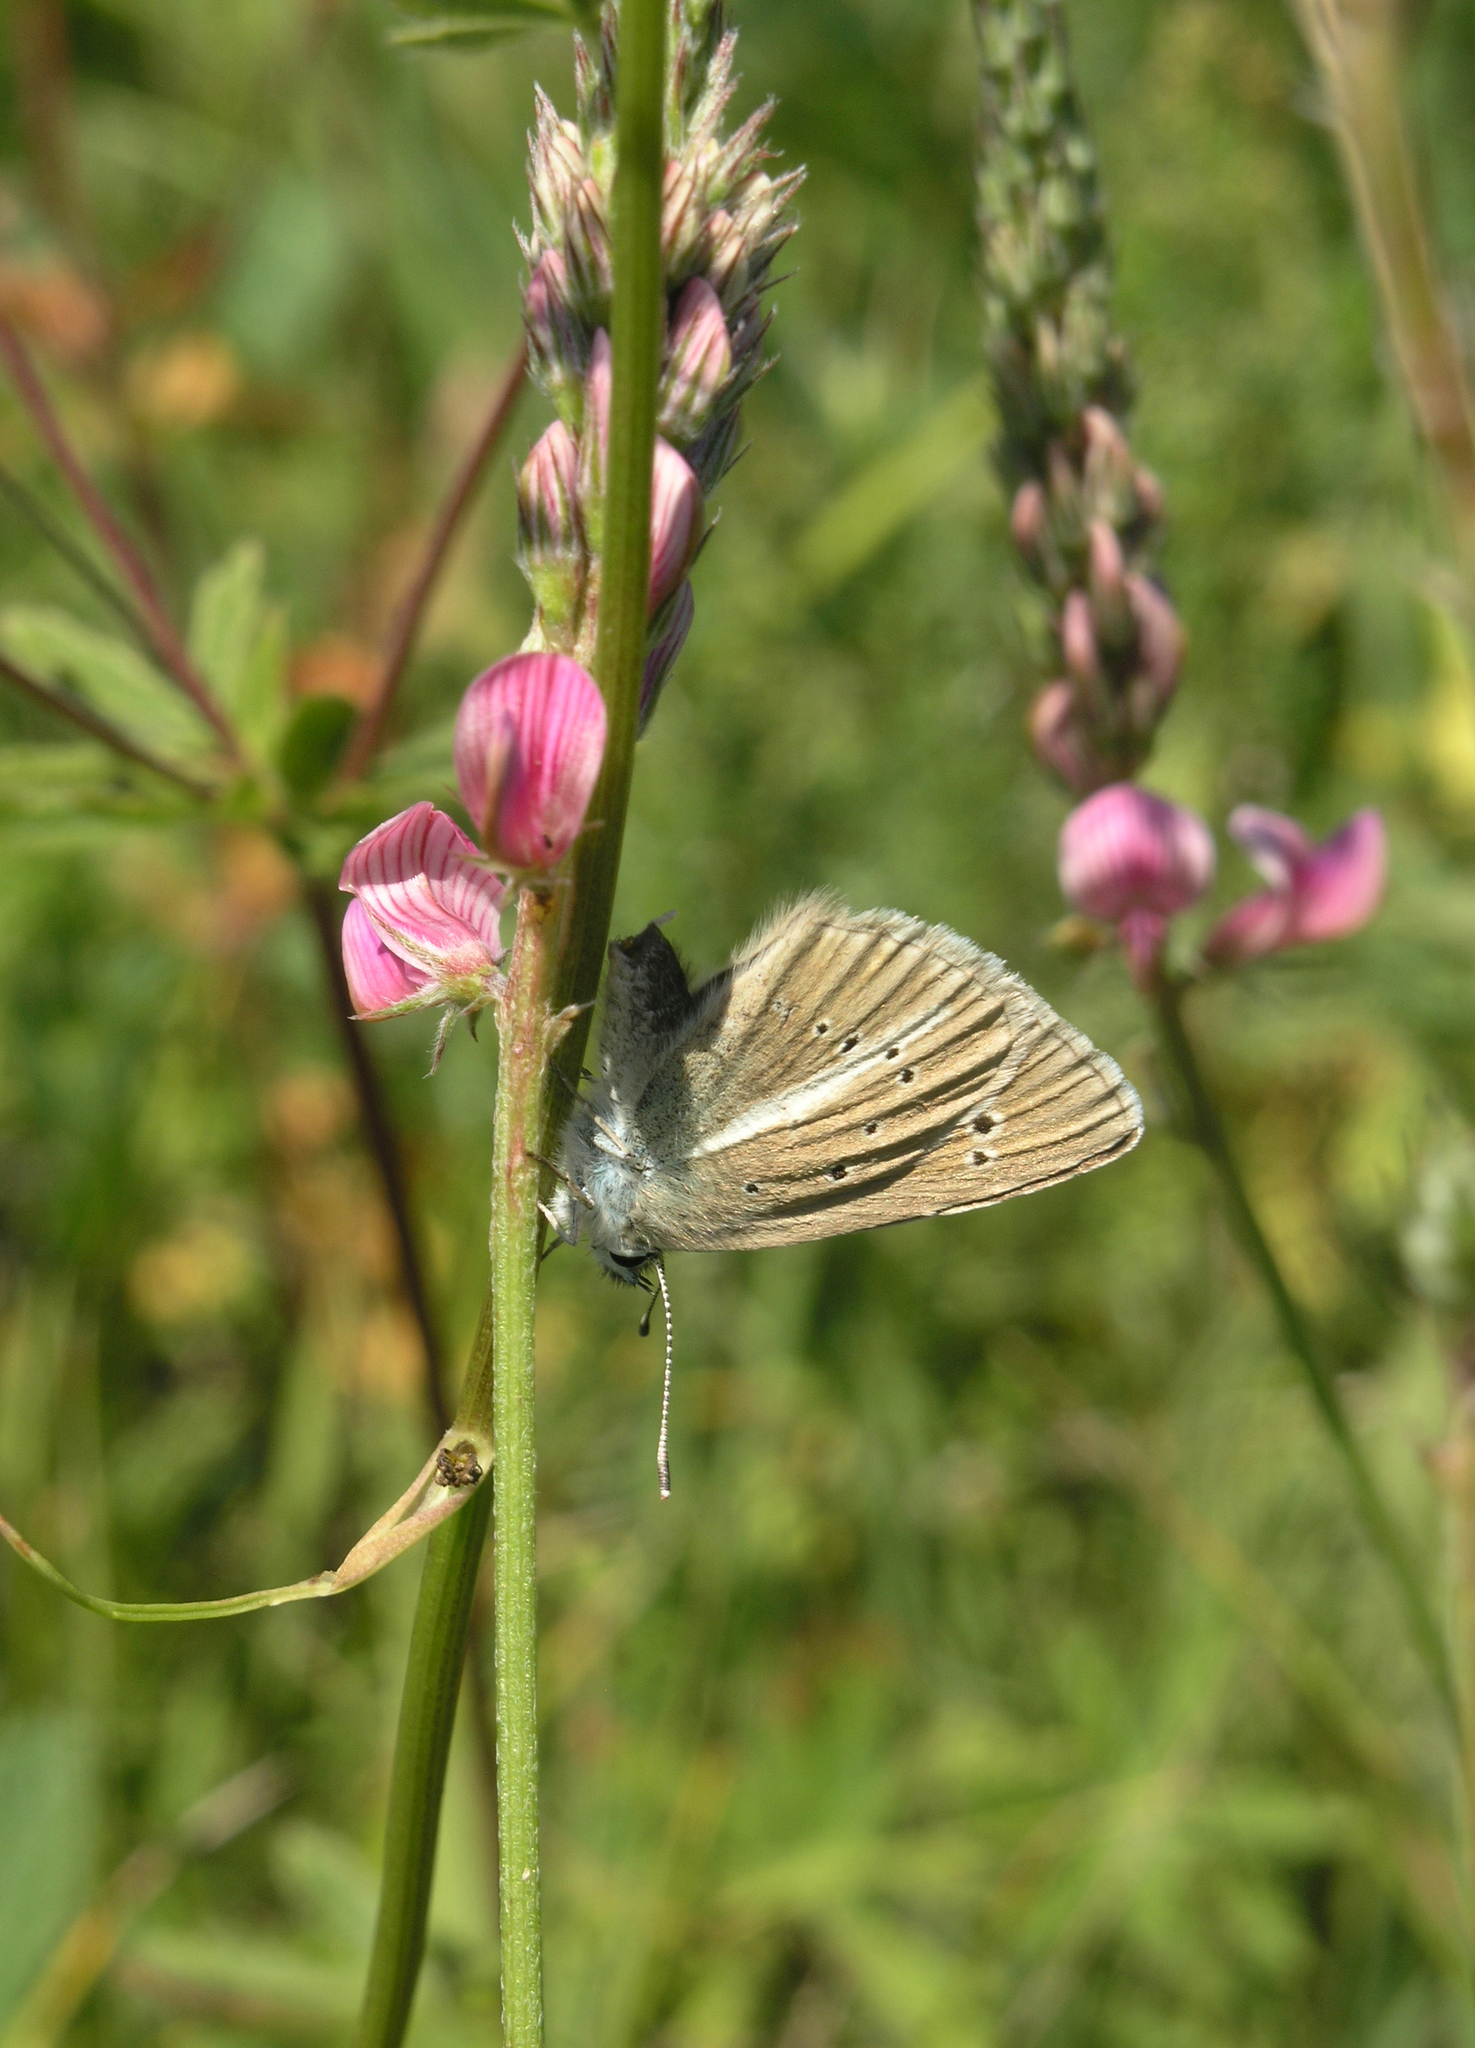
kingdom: Animalia
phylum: Arthropoda
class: Insecta
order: Lepidoptera
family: Lycaenidae
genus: Agrodiaetus
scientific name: Agrodiaetus damon
